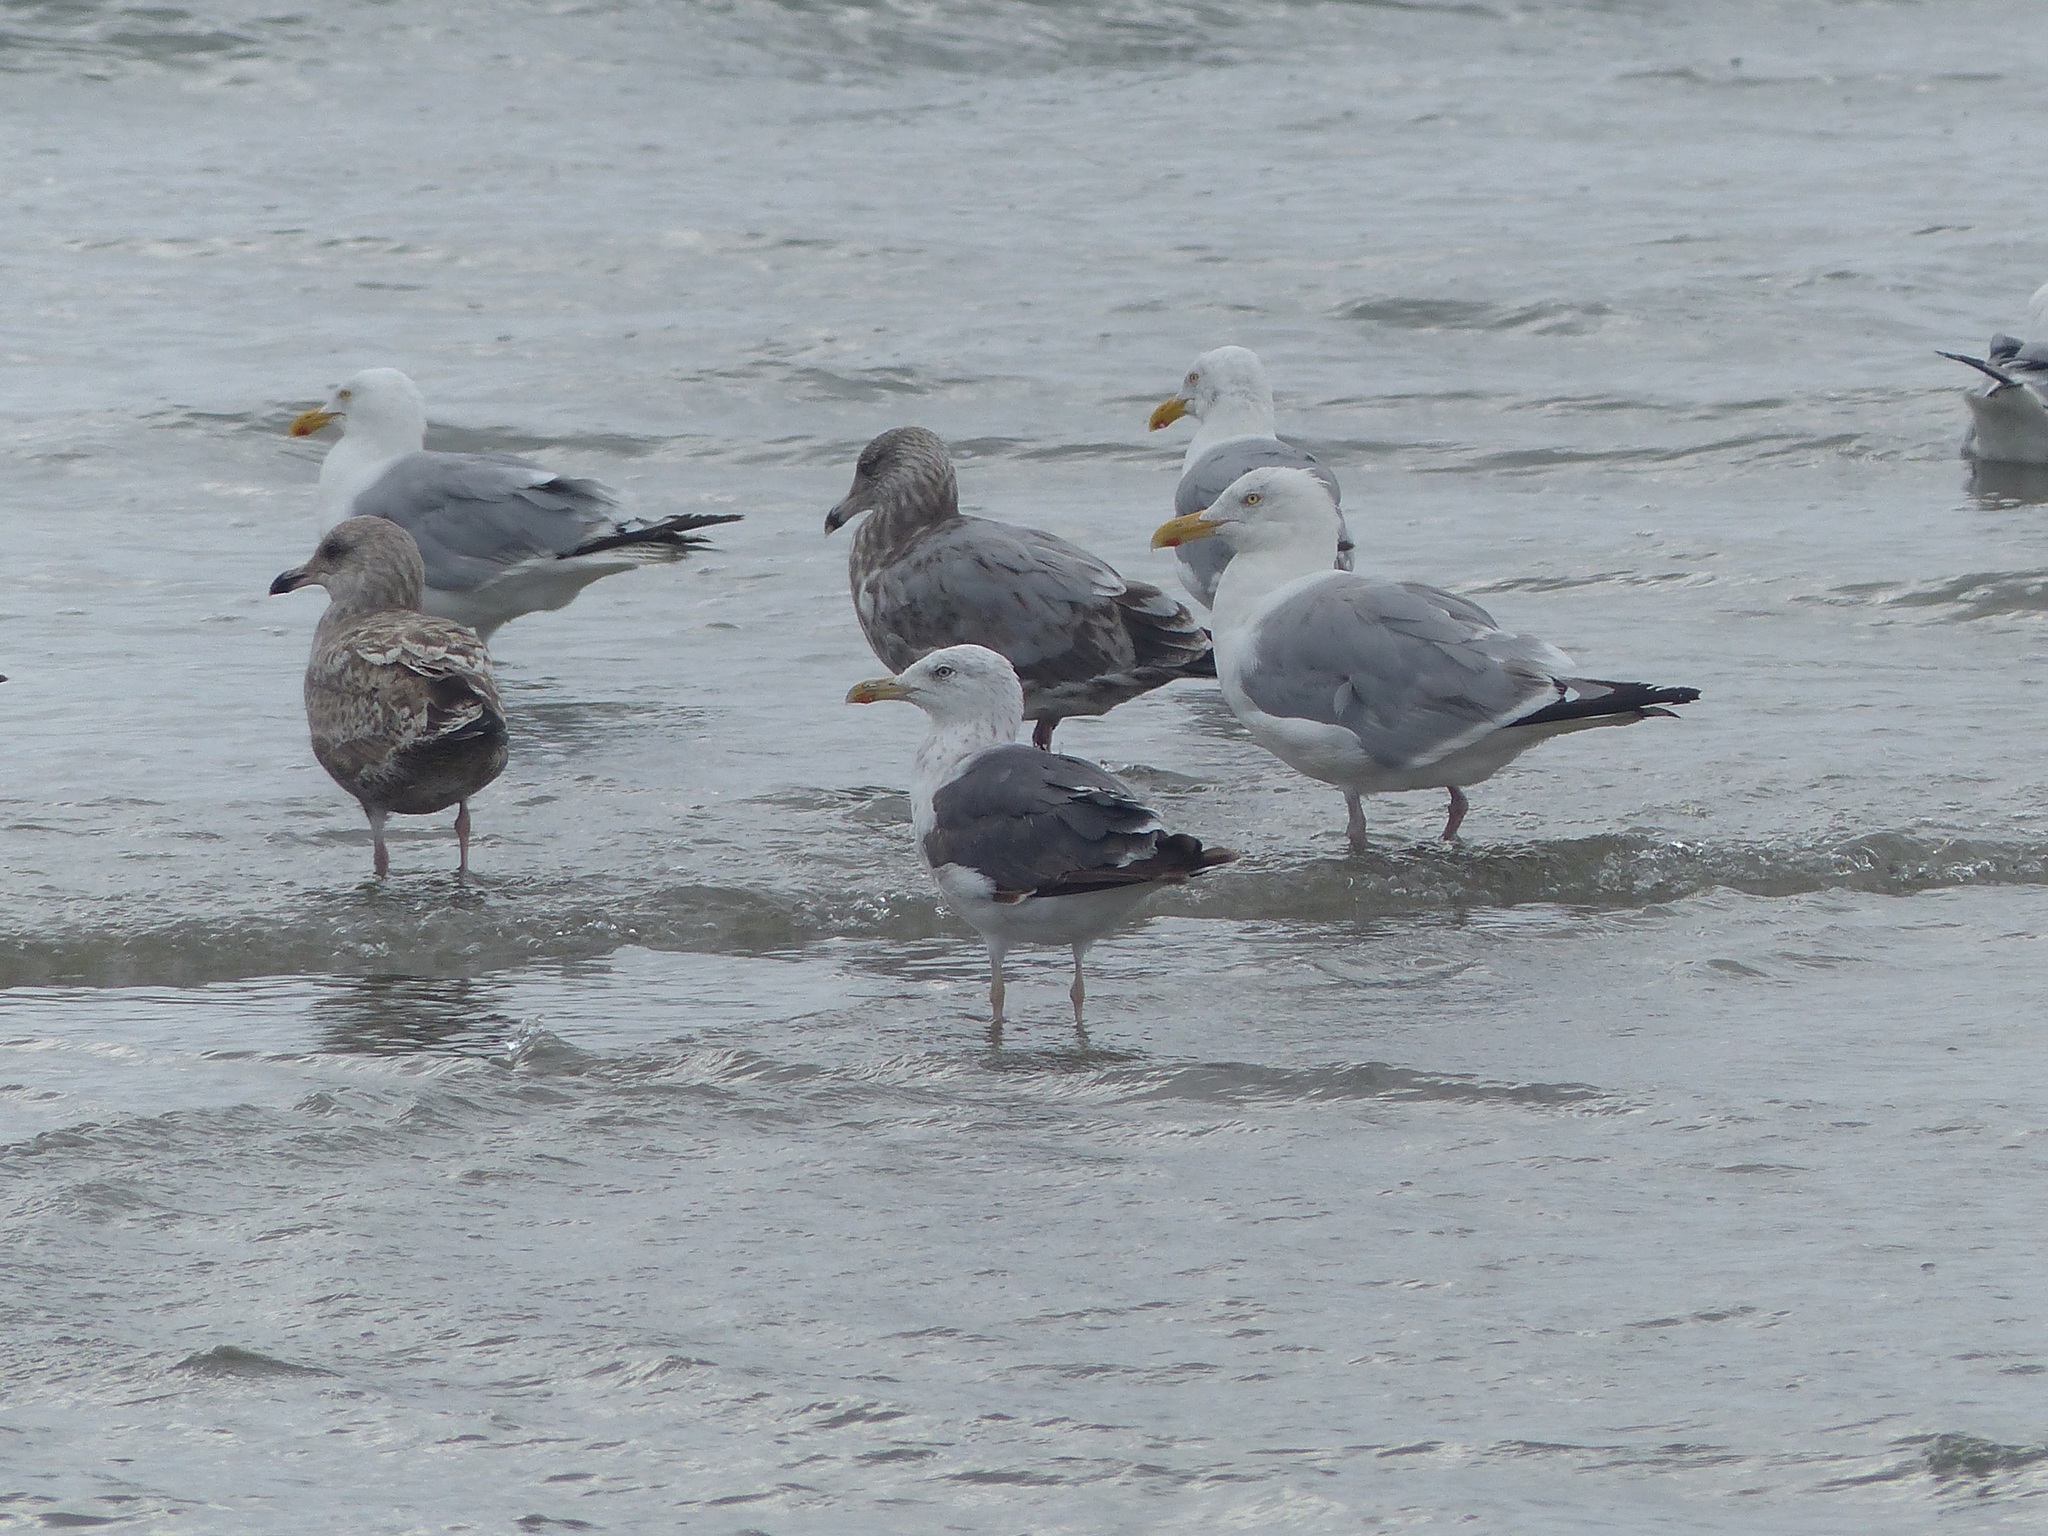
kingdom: Animalia
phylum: Chordata
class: Aves
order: Charadriiformes
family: Laridae
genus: Larus
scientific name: Larus fuscus
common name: Lesser black-backed gull
